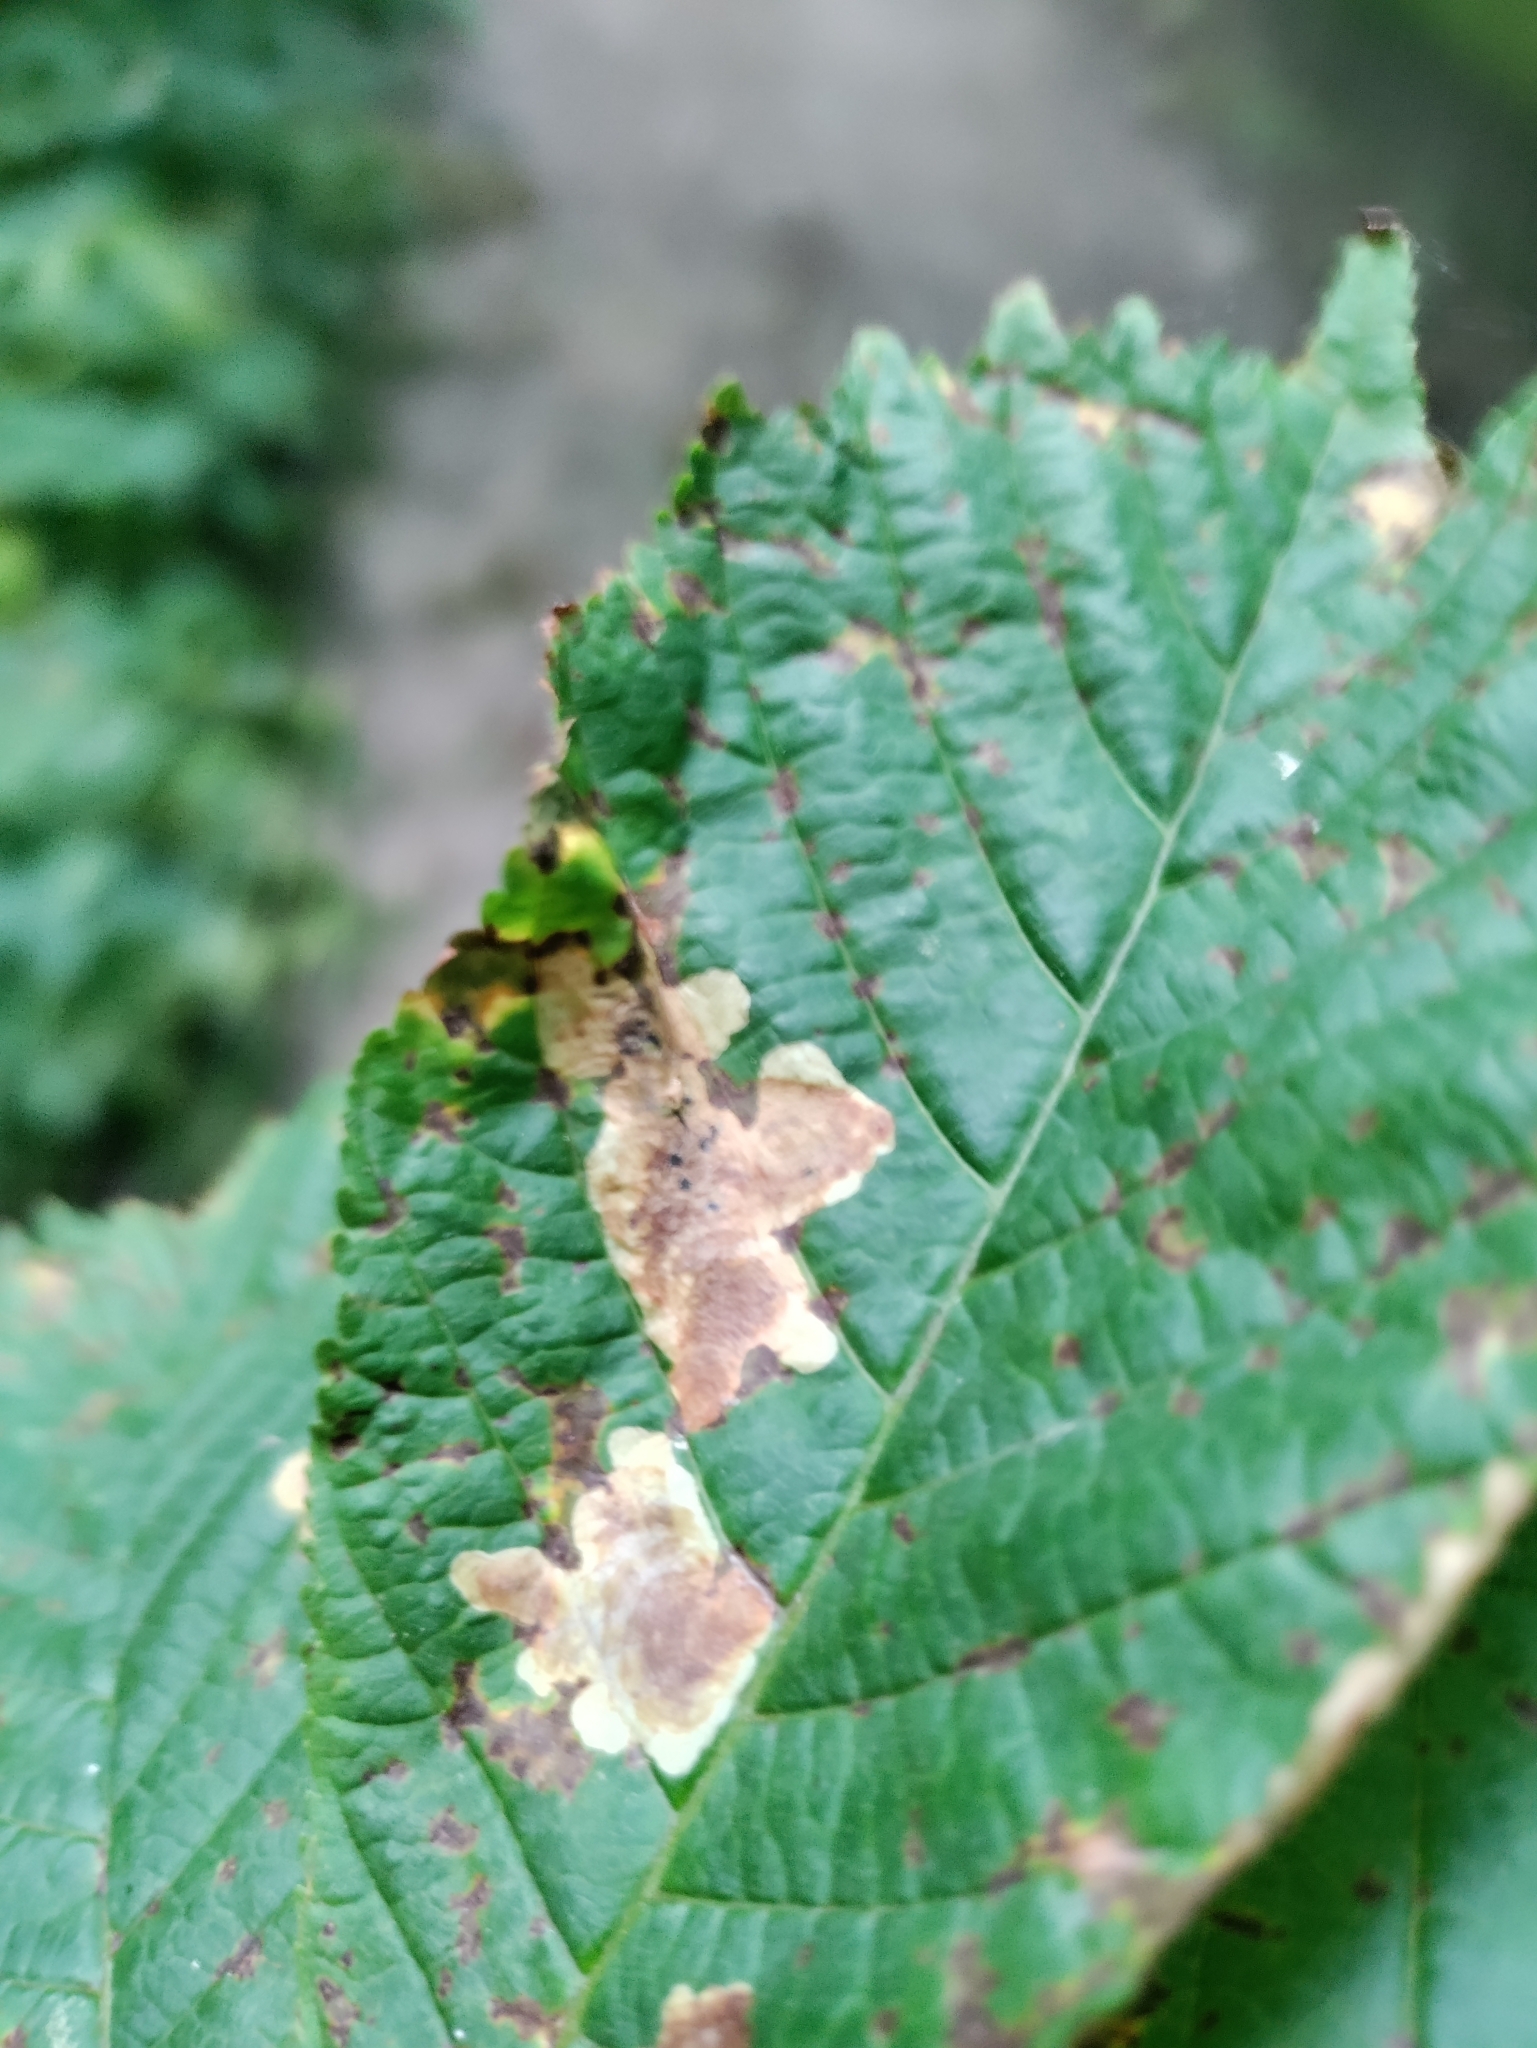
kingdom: Animalia
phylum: Arthropoda
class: Insecta
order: Lepidoptera
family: Gracillariidae
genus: Cameraria
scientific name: Cameraria ohridella
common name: Horse-chestnut leaf-miner
